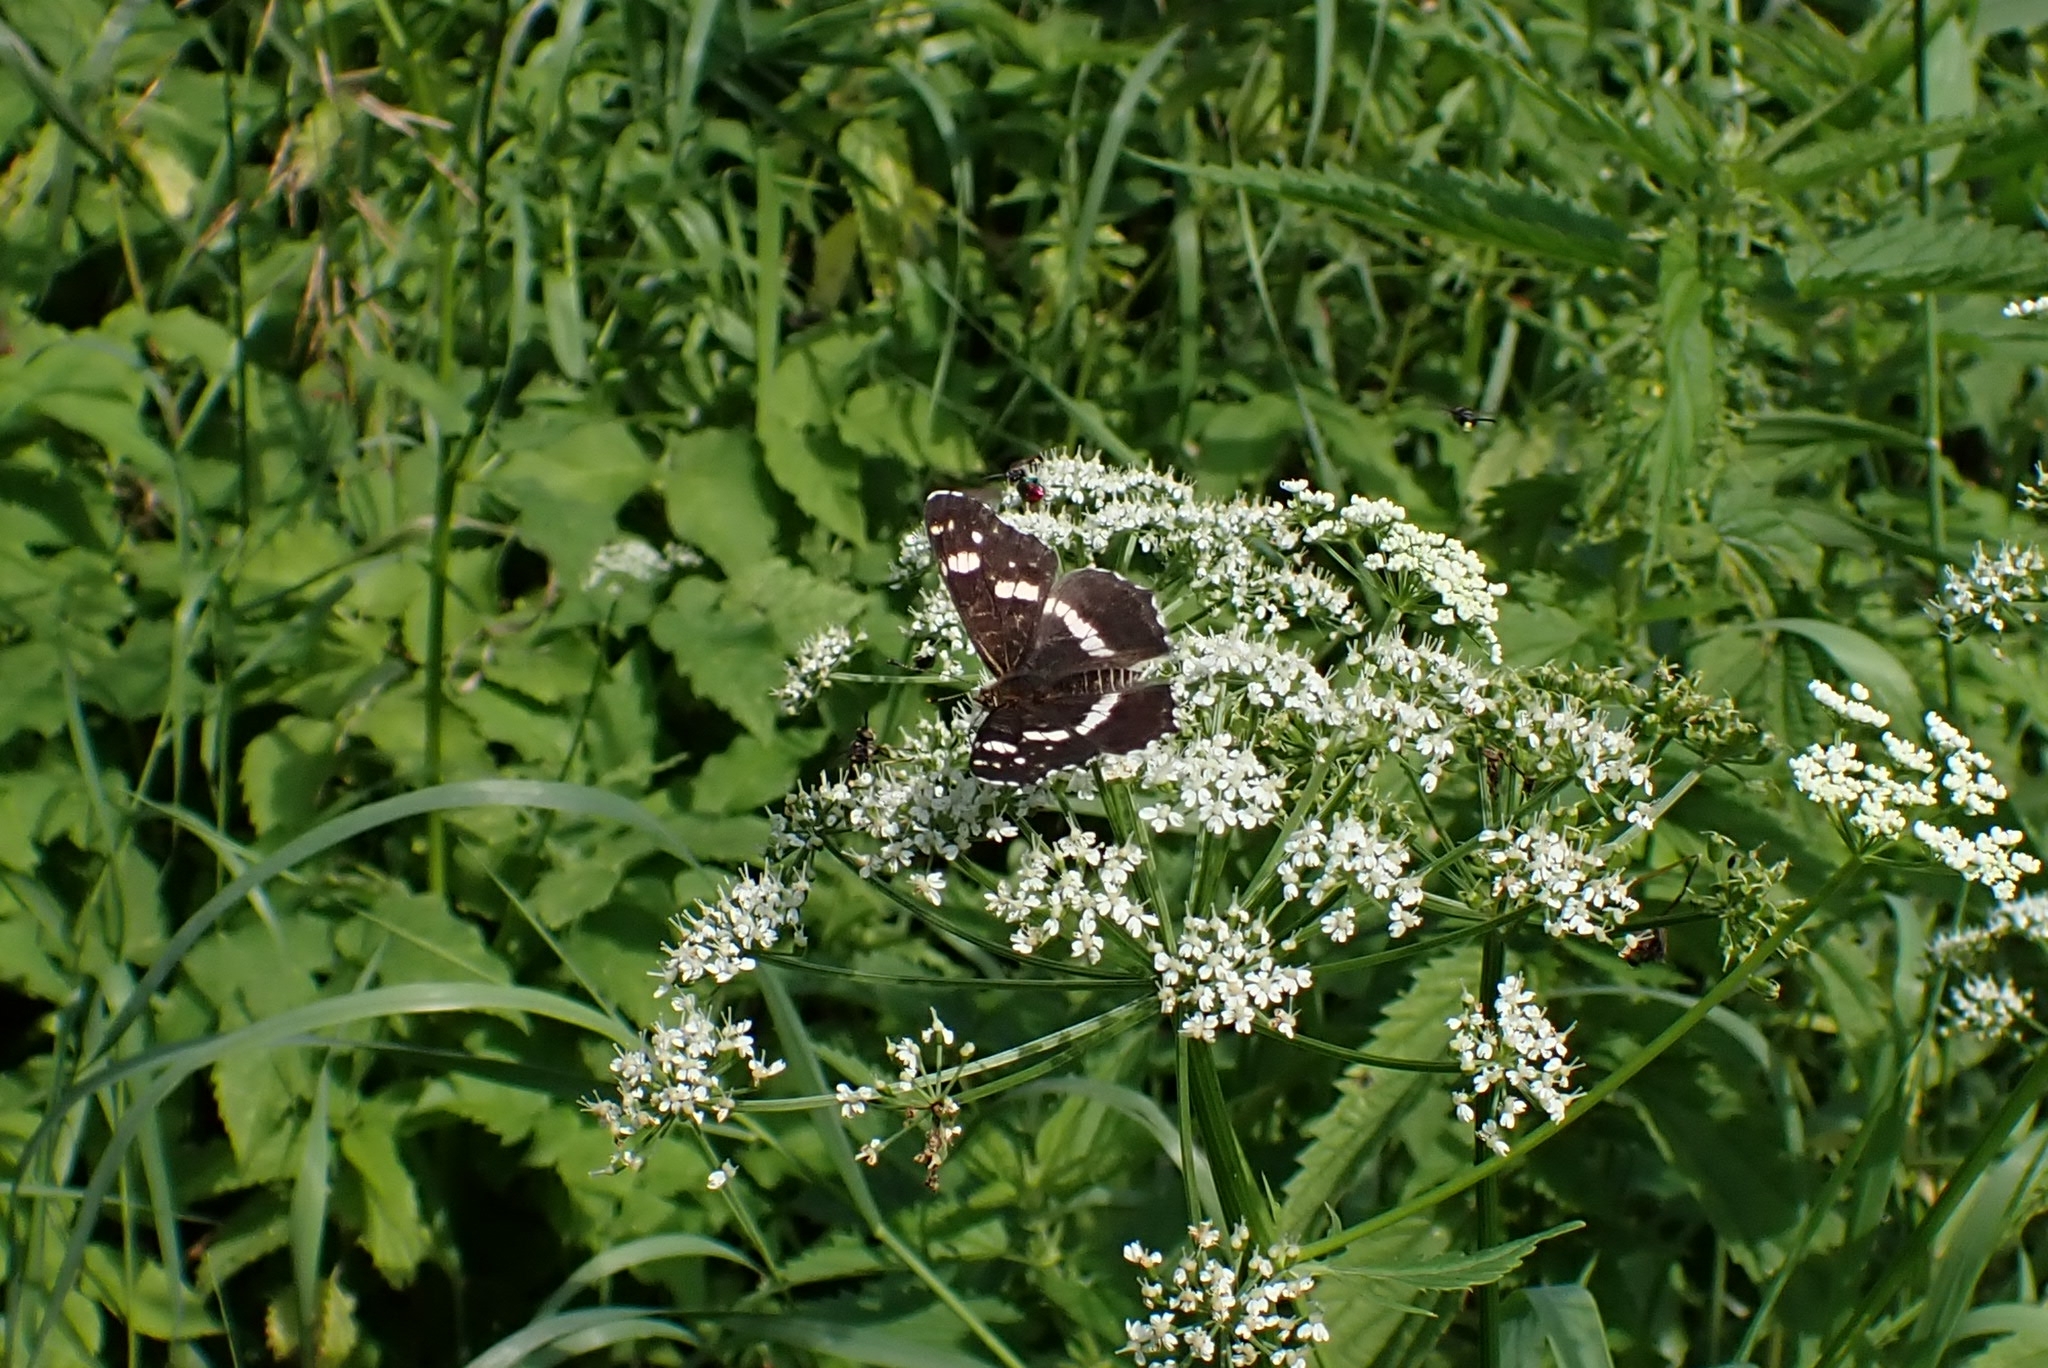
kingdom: Animalia
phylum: Arthropoda
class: Insecta
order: Lepidoptera
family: Nymphalidae
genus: Araschnia
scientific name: Araschnia levana
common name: Map butterfly
